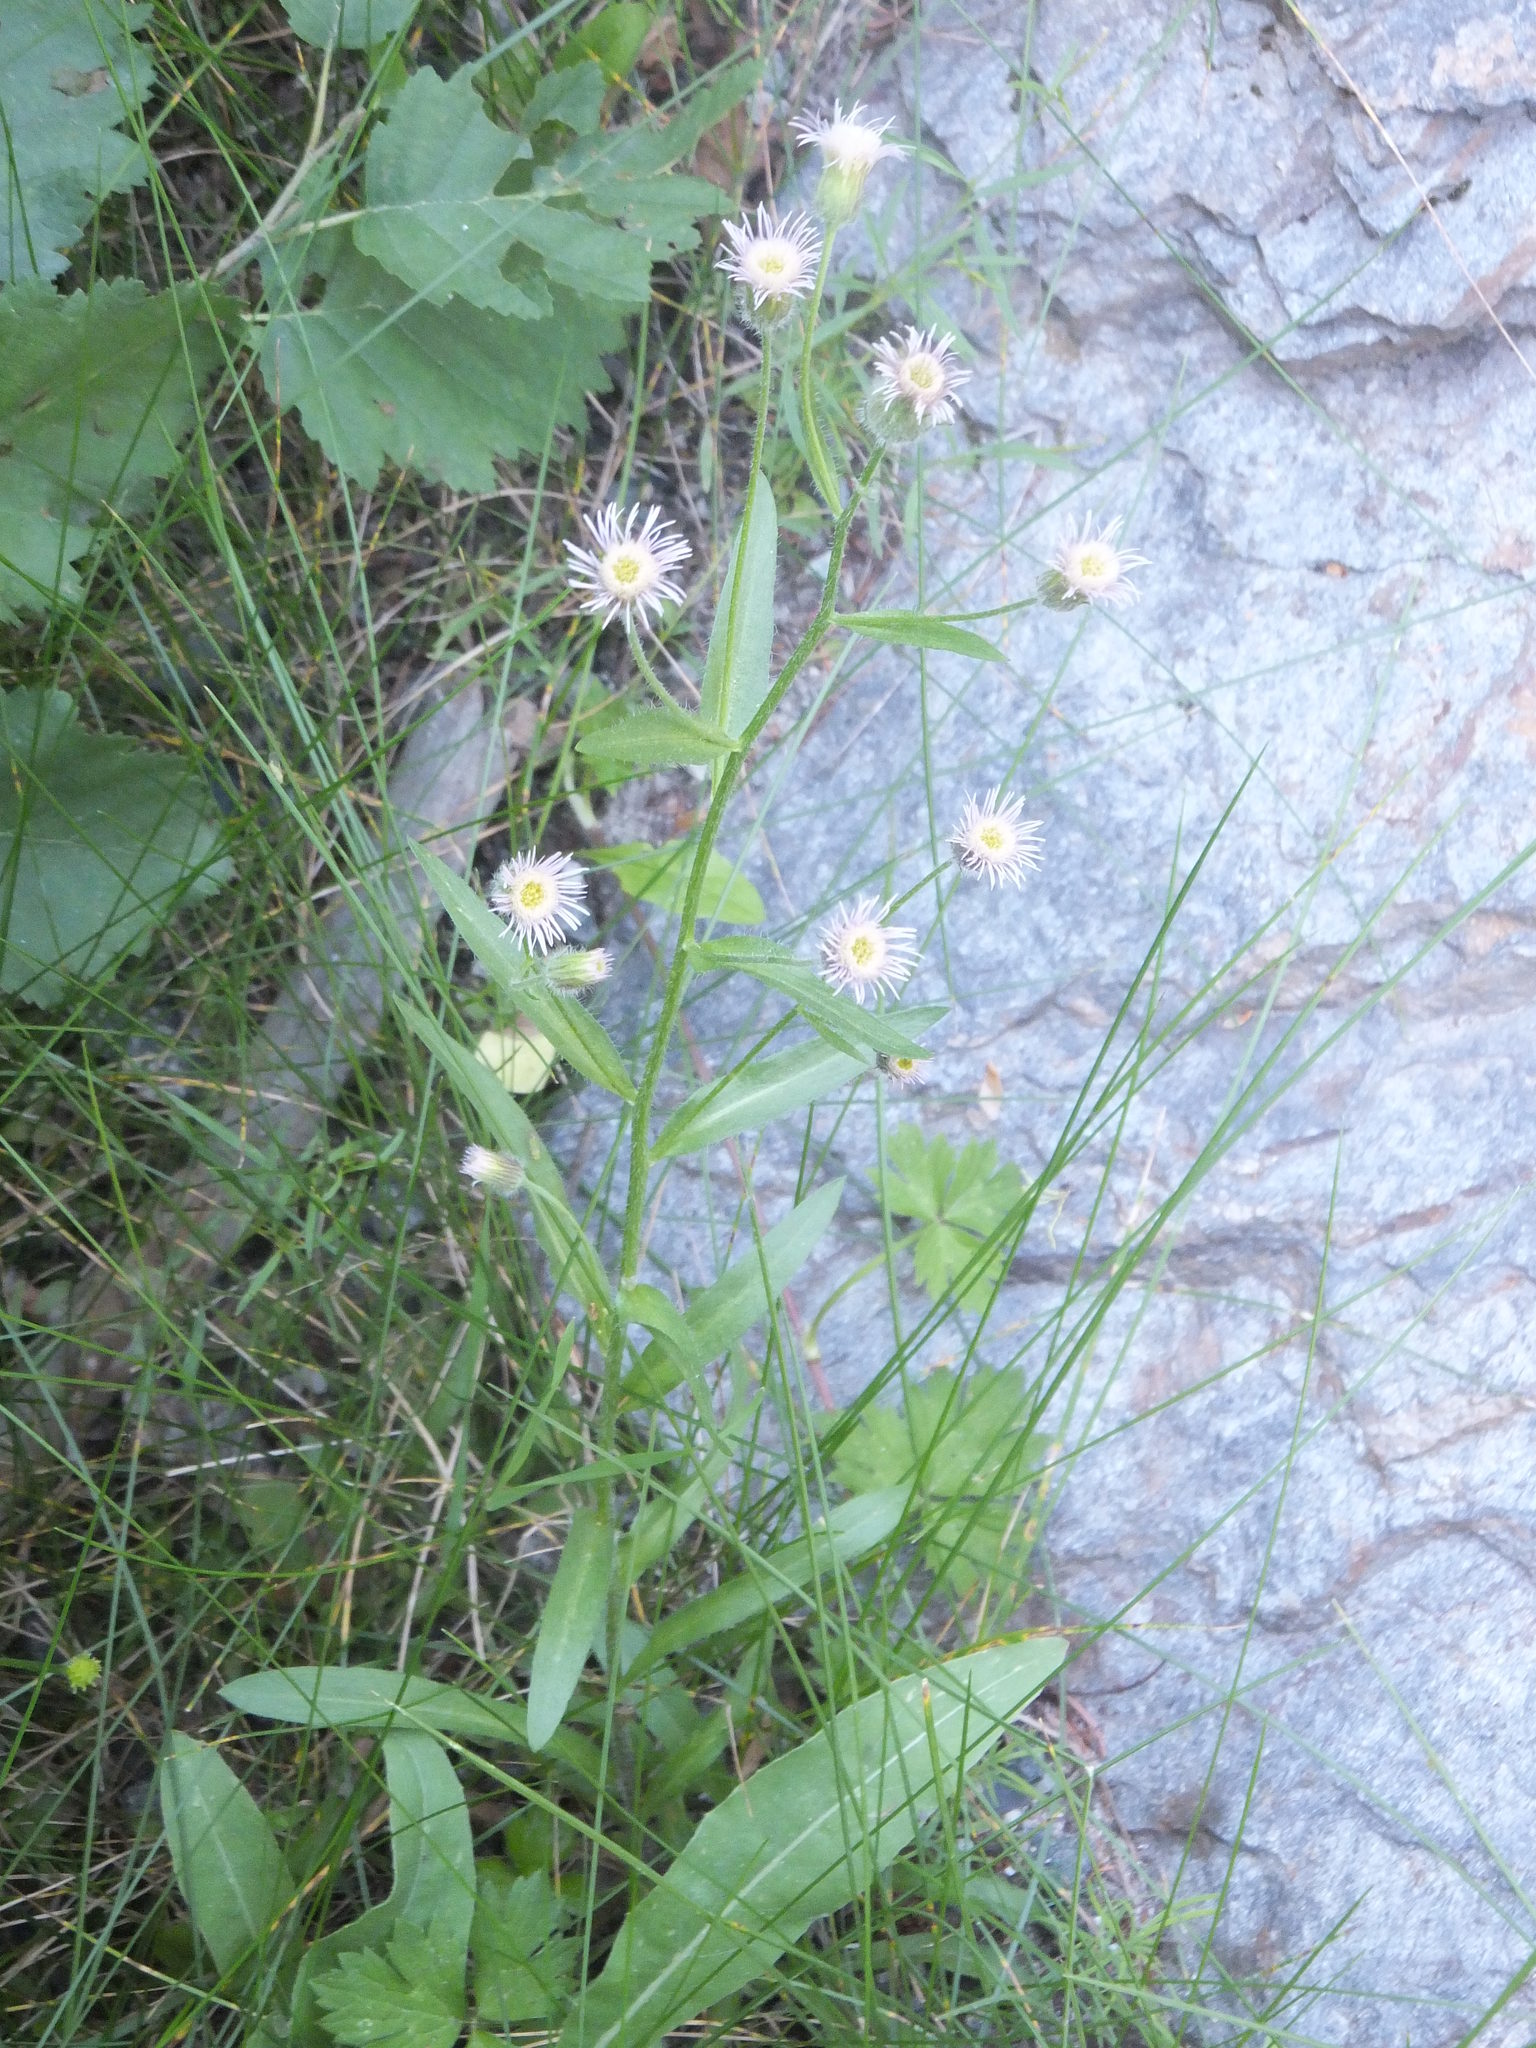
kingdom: Plantae
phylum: Tracheophyta
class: Magnoliopsida
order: Asterales
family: Asteraceae
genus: Erigeron
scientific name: Erigeron acris
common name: Blue fleabane
